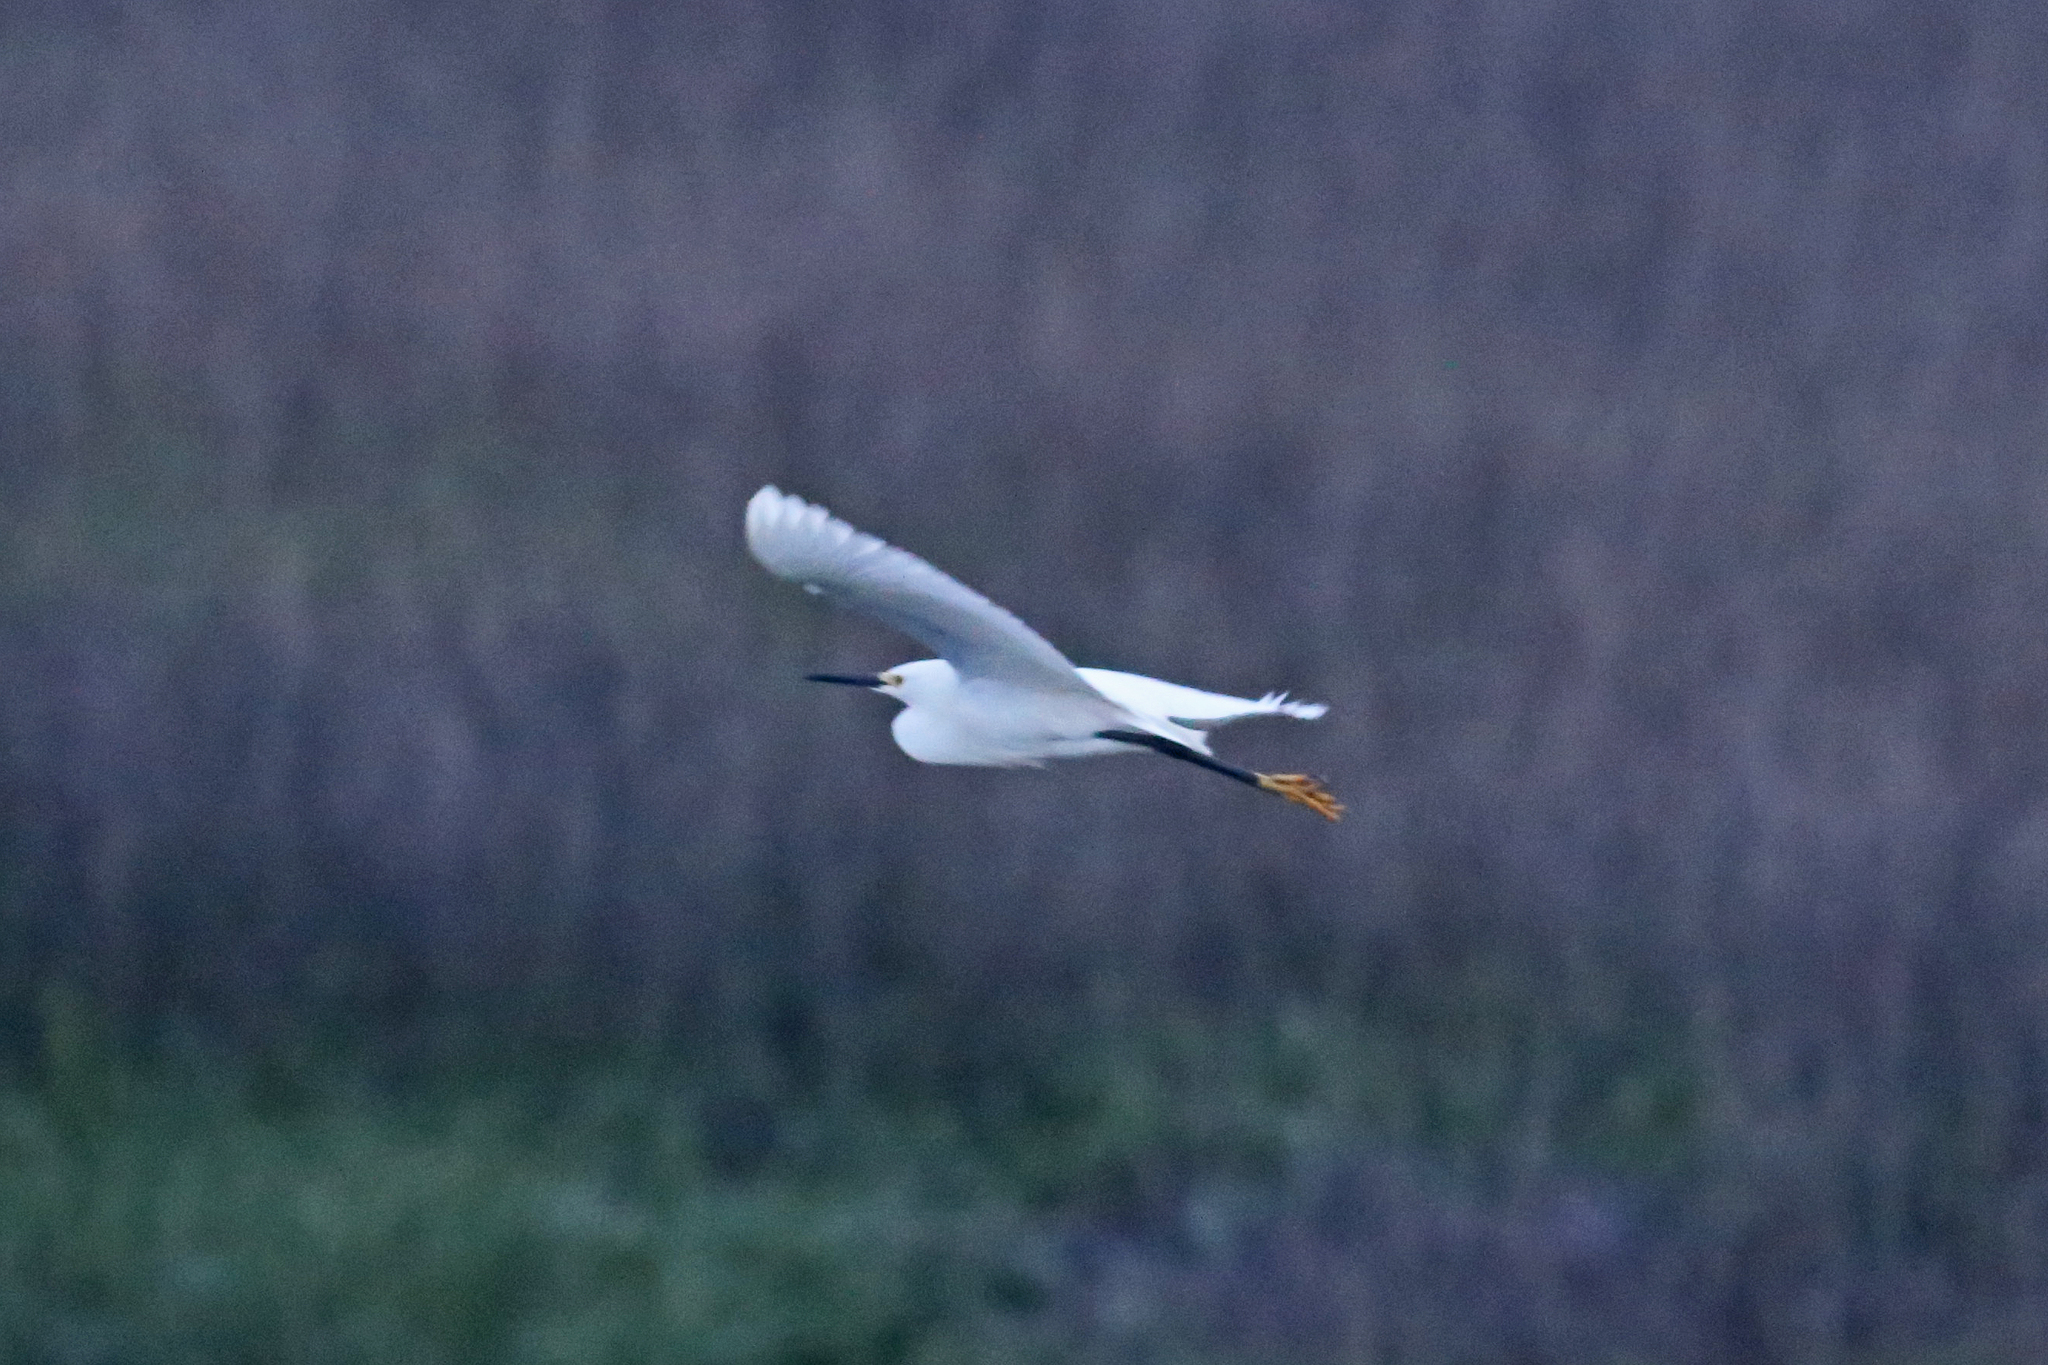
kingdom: Animalia
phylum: Chordata
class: Aves
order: Pelecaniformes
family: Ardeidae
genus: Egretta
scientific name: Egretta thula
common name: Snowy egret
